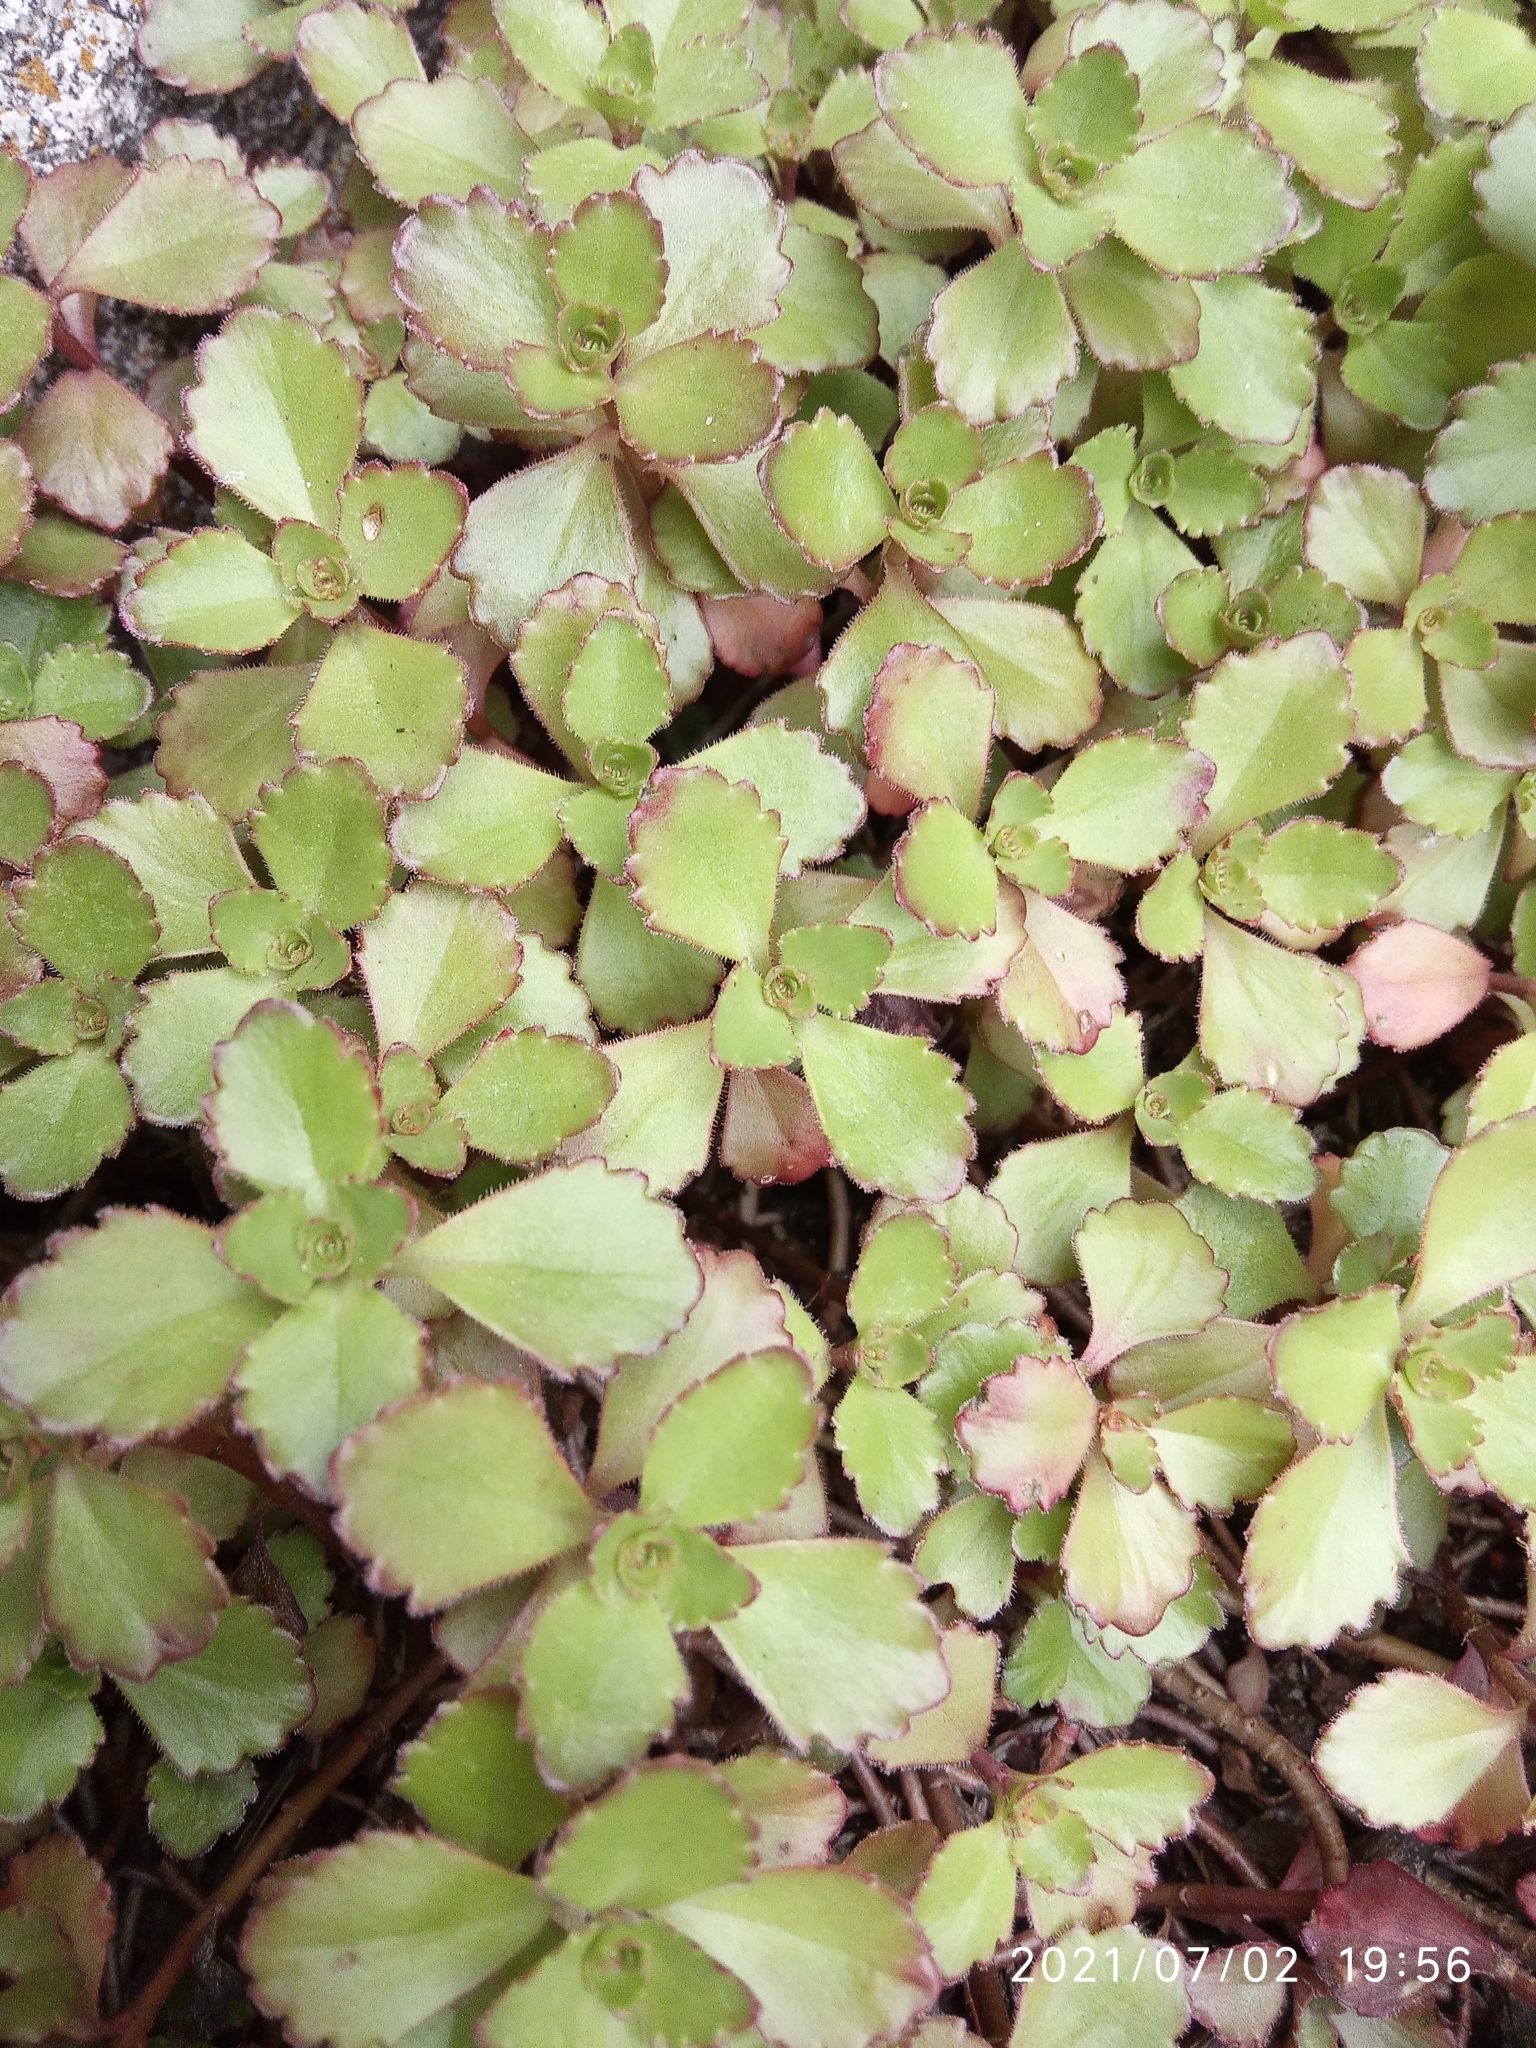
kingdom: Plantae
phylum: Tracheophyta
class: Magnoliopsida
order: Saxifragales
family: Crassulaceae
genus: Phedimus
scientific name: Phedimus spurius
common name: Caucasian stonecrop
